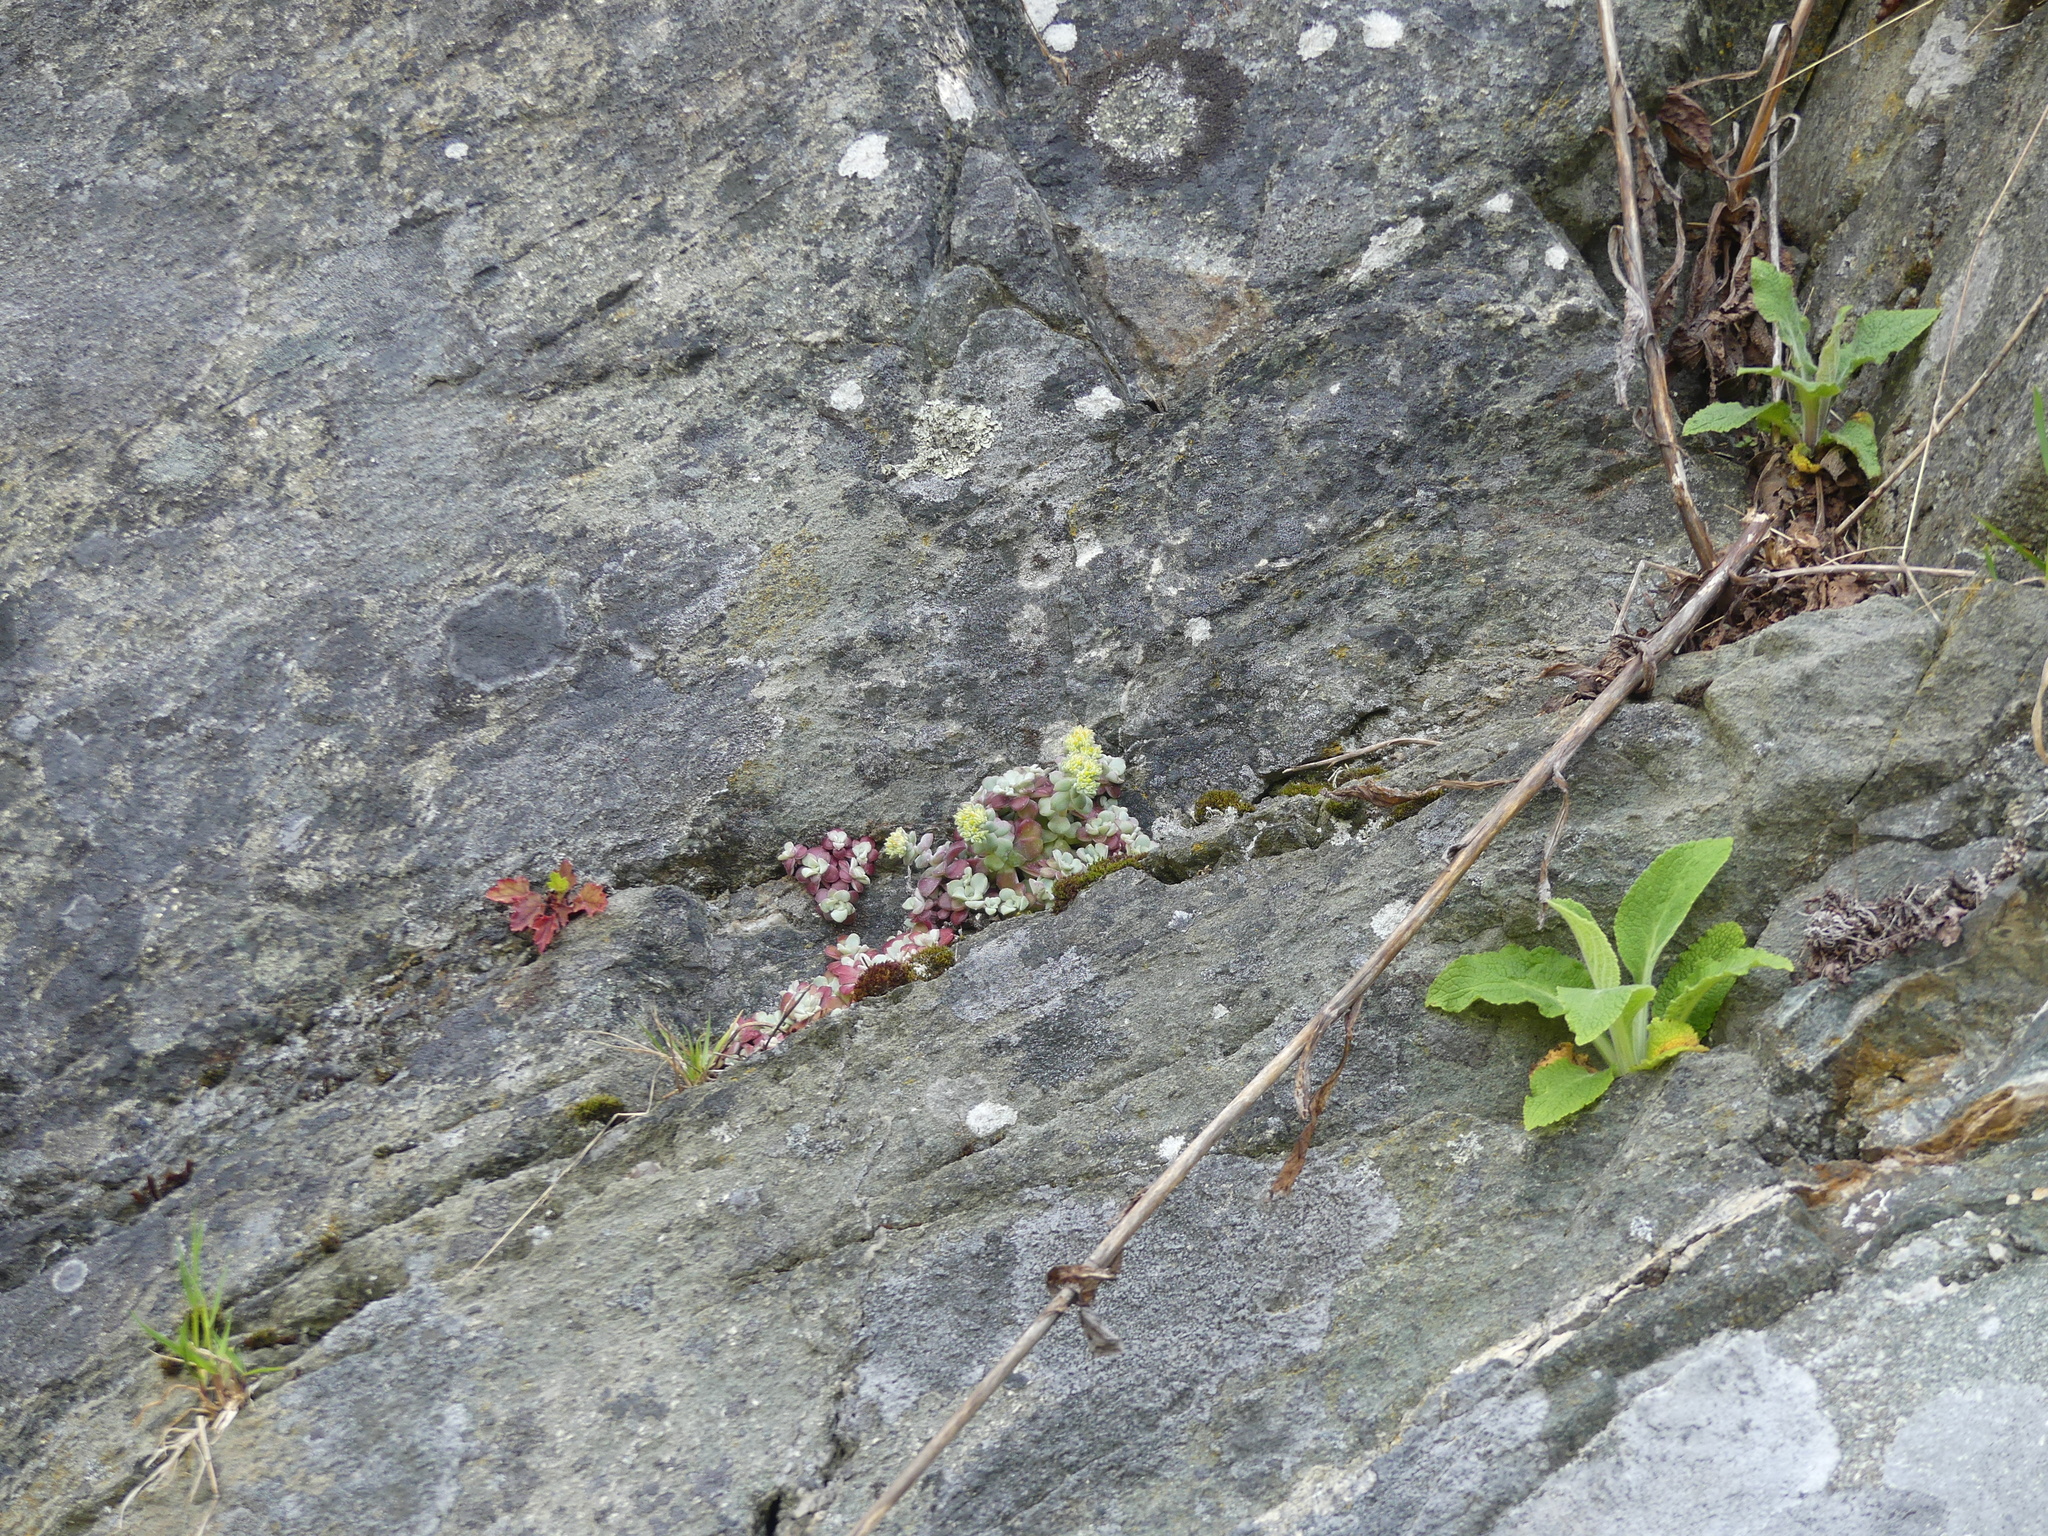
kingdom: Plantae
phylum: Tracheophyta
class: Magnoliopsida
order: Saxifragales
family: Crassulaceae
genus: Sedum
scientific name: Sedum spathulifolium
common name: Colorado stonecrop
